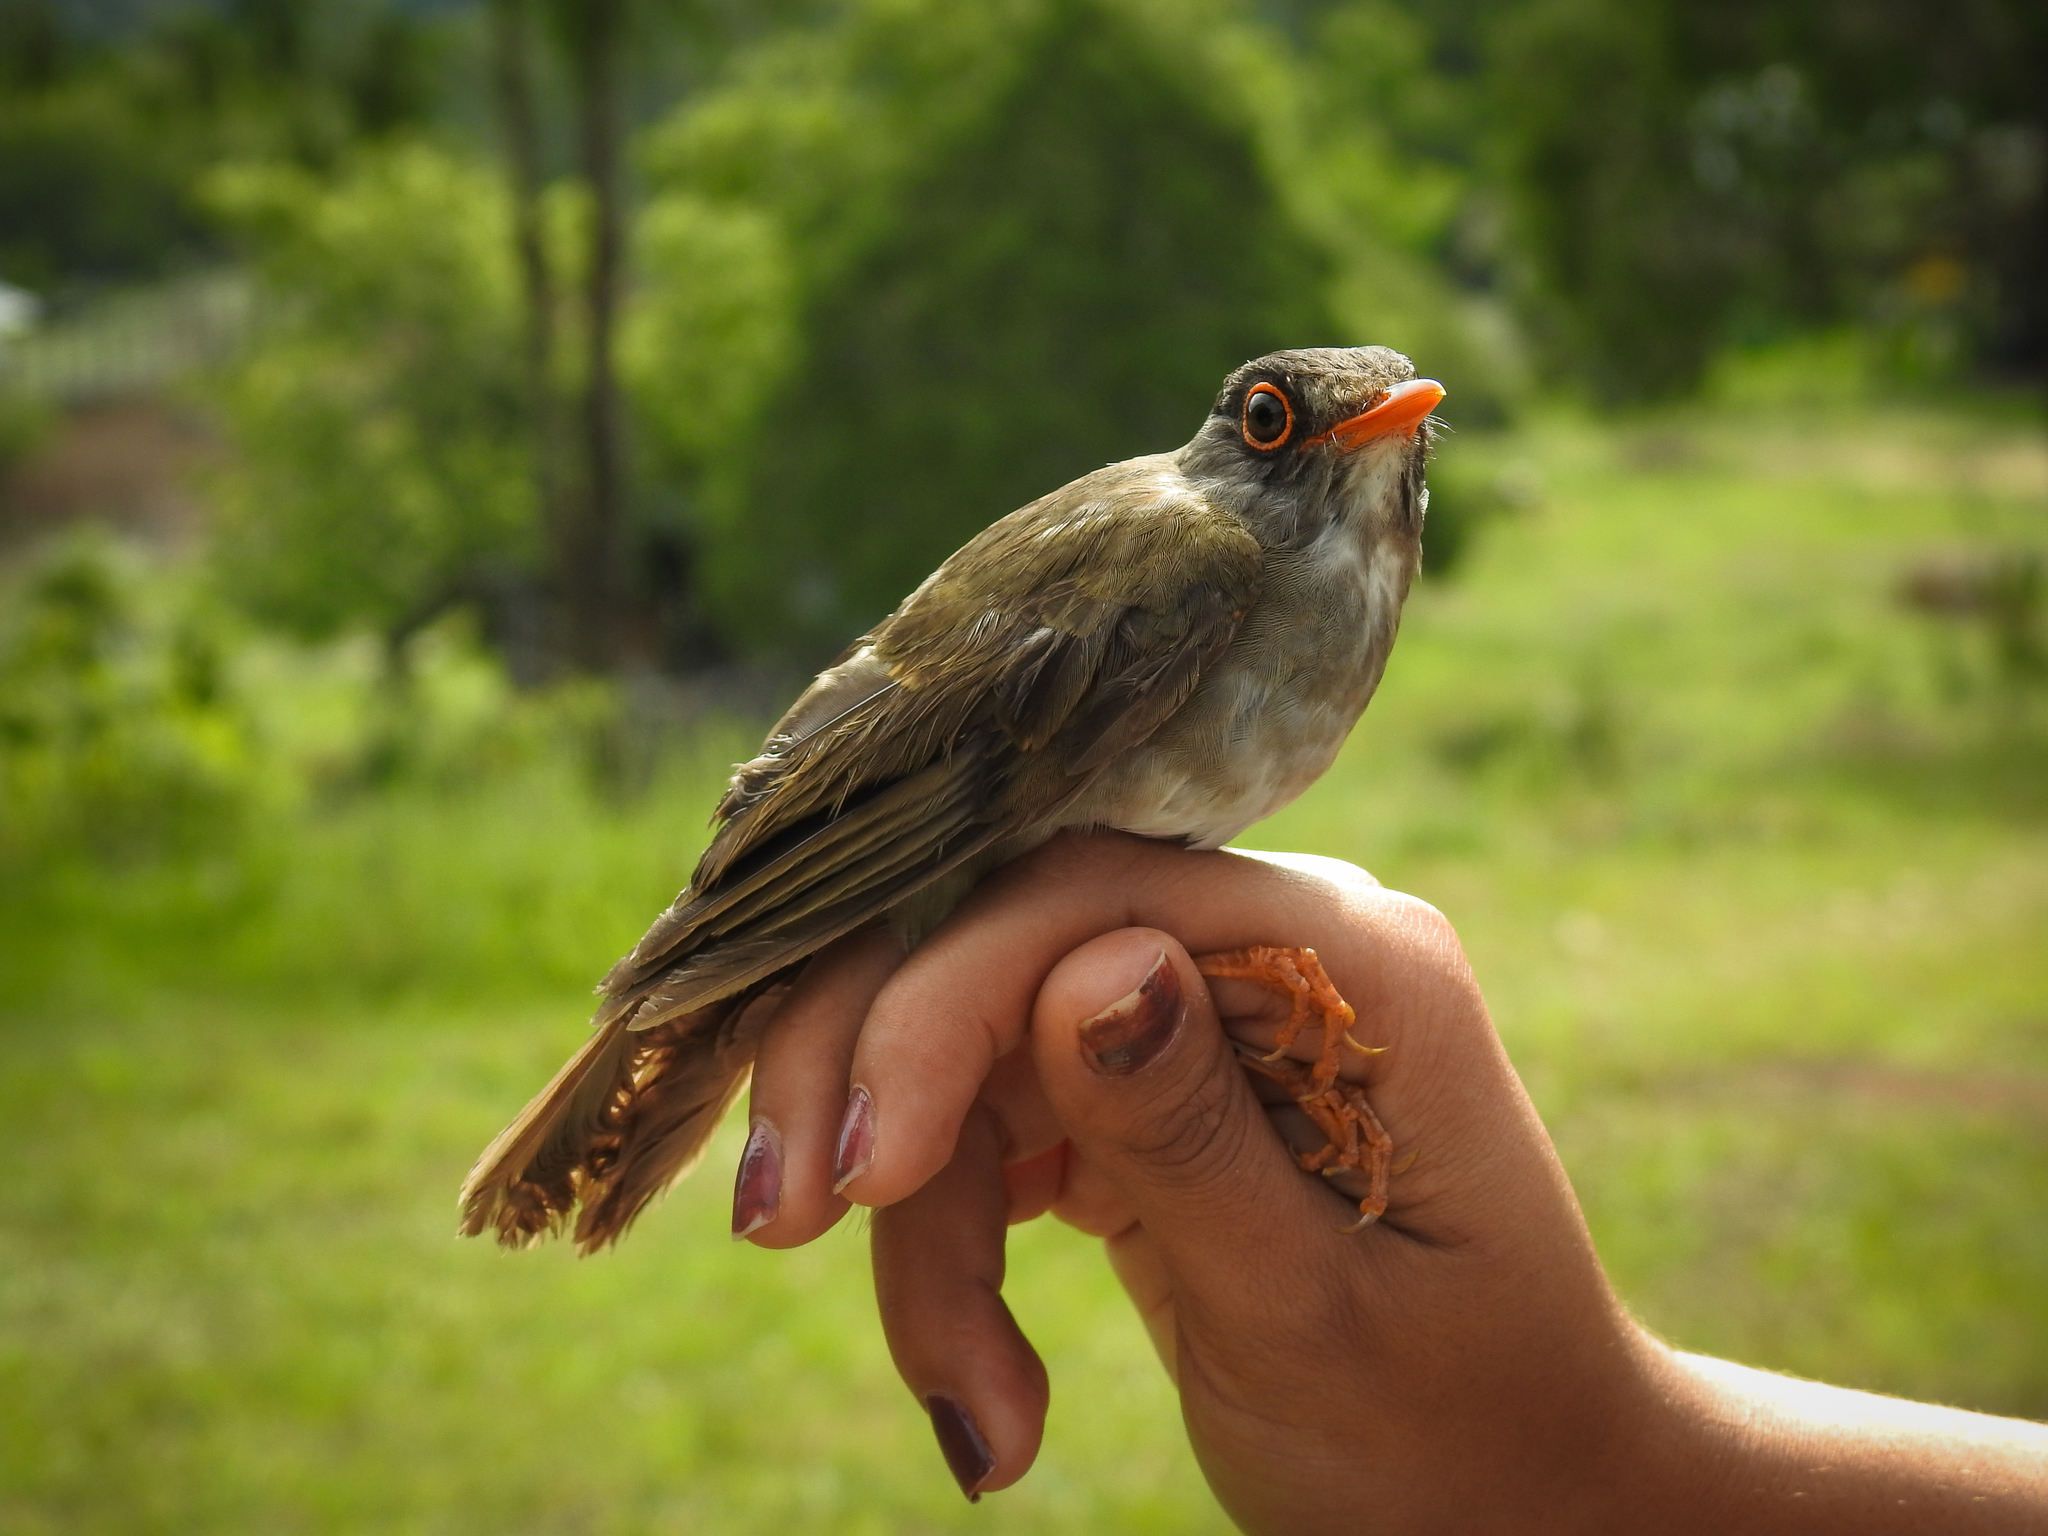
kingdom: Animalia
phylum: Chordata
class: Aves
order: Passeriformes
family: Turdidae
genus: Catharus
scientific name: Catharus mexicanus
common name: Black-headed nightingale-thrush
